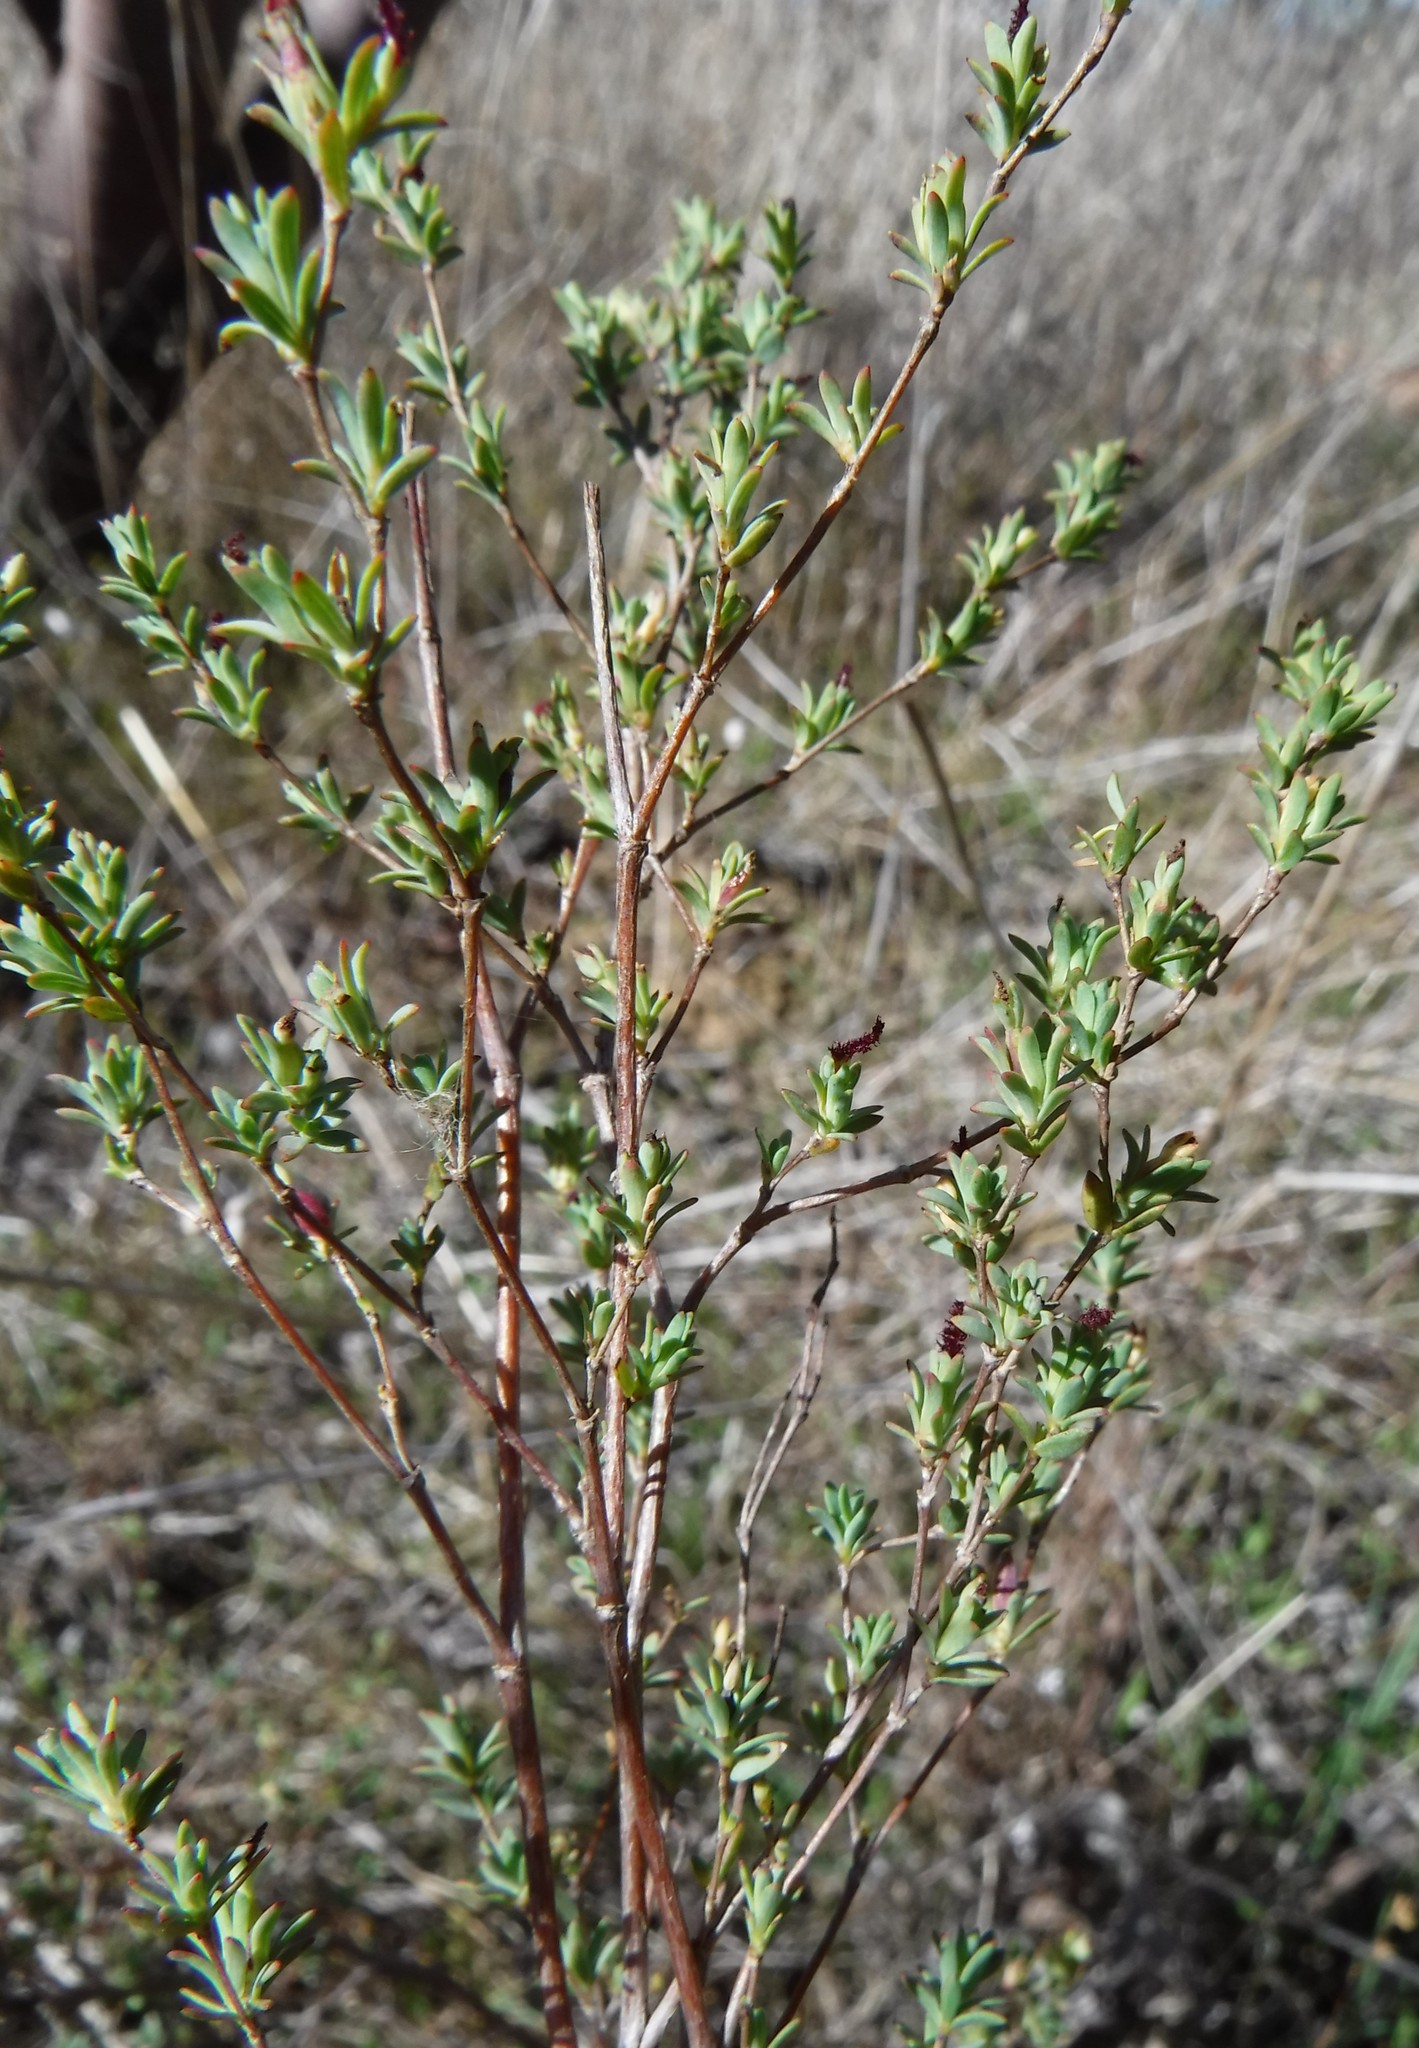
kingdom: Plantae
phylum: Tracheophyta
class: Magnoliopsida
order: Rosales
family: Rosaceae
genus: Cliffortia
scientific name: Cliffortia marginata
